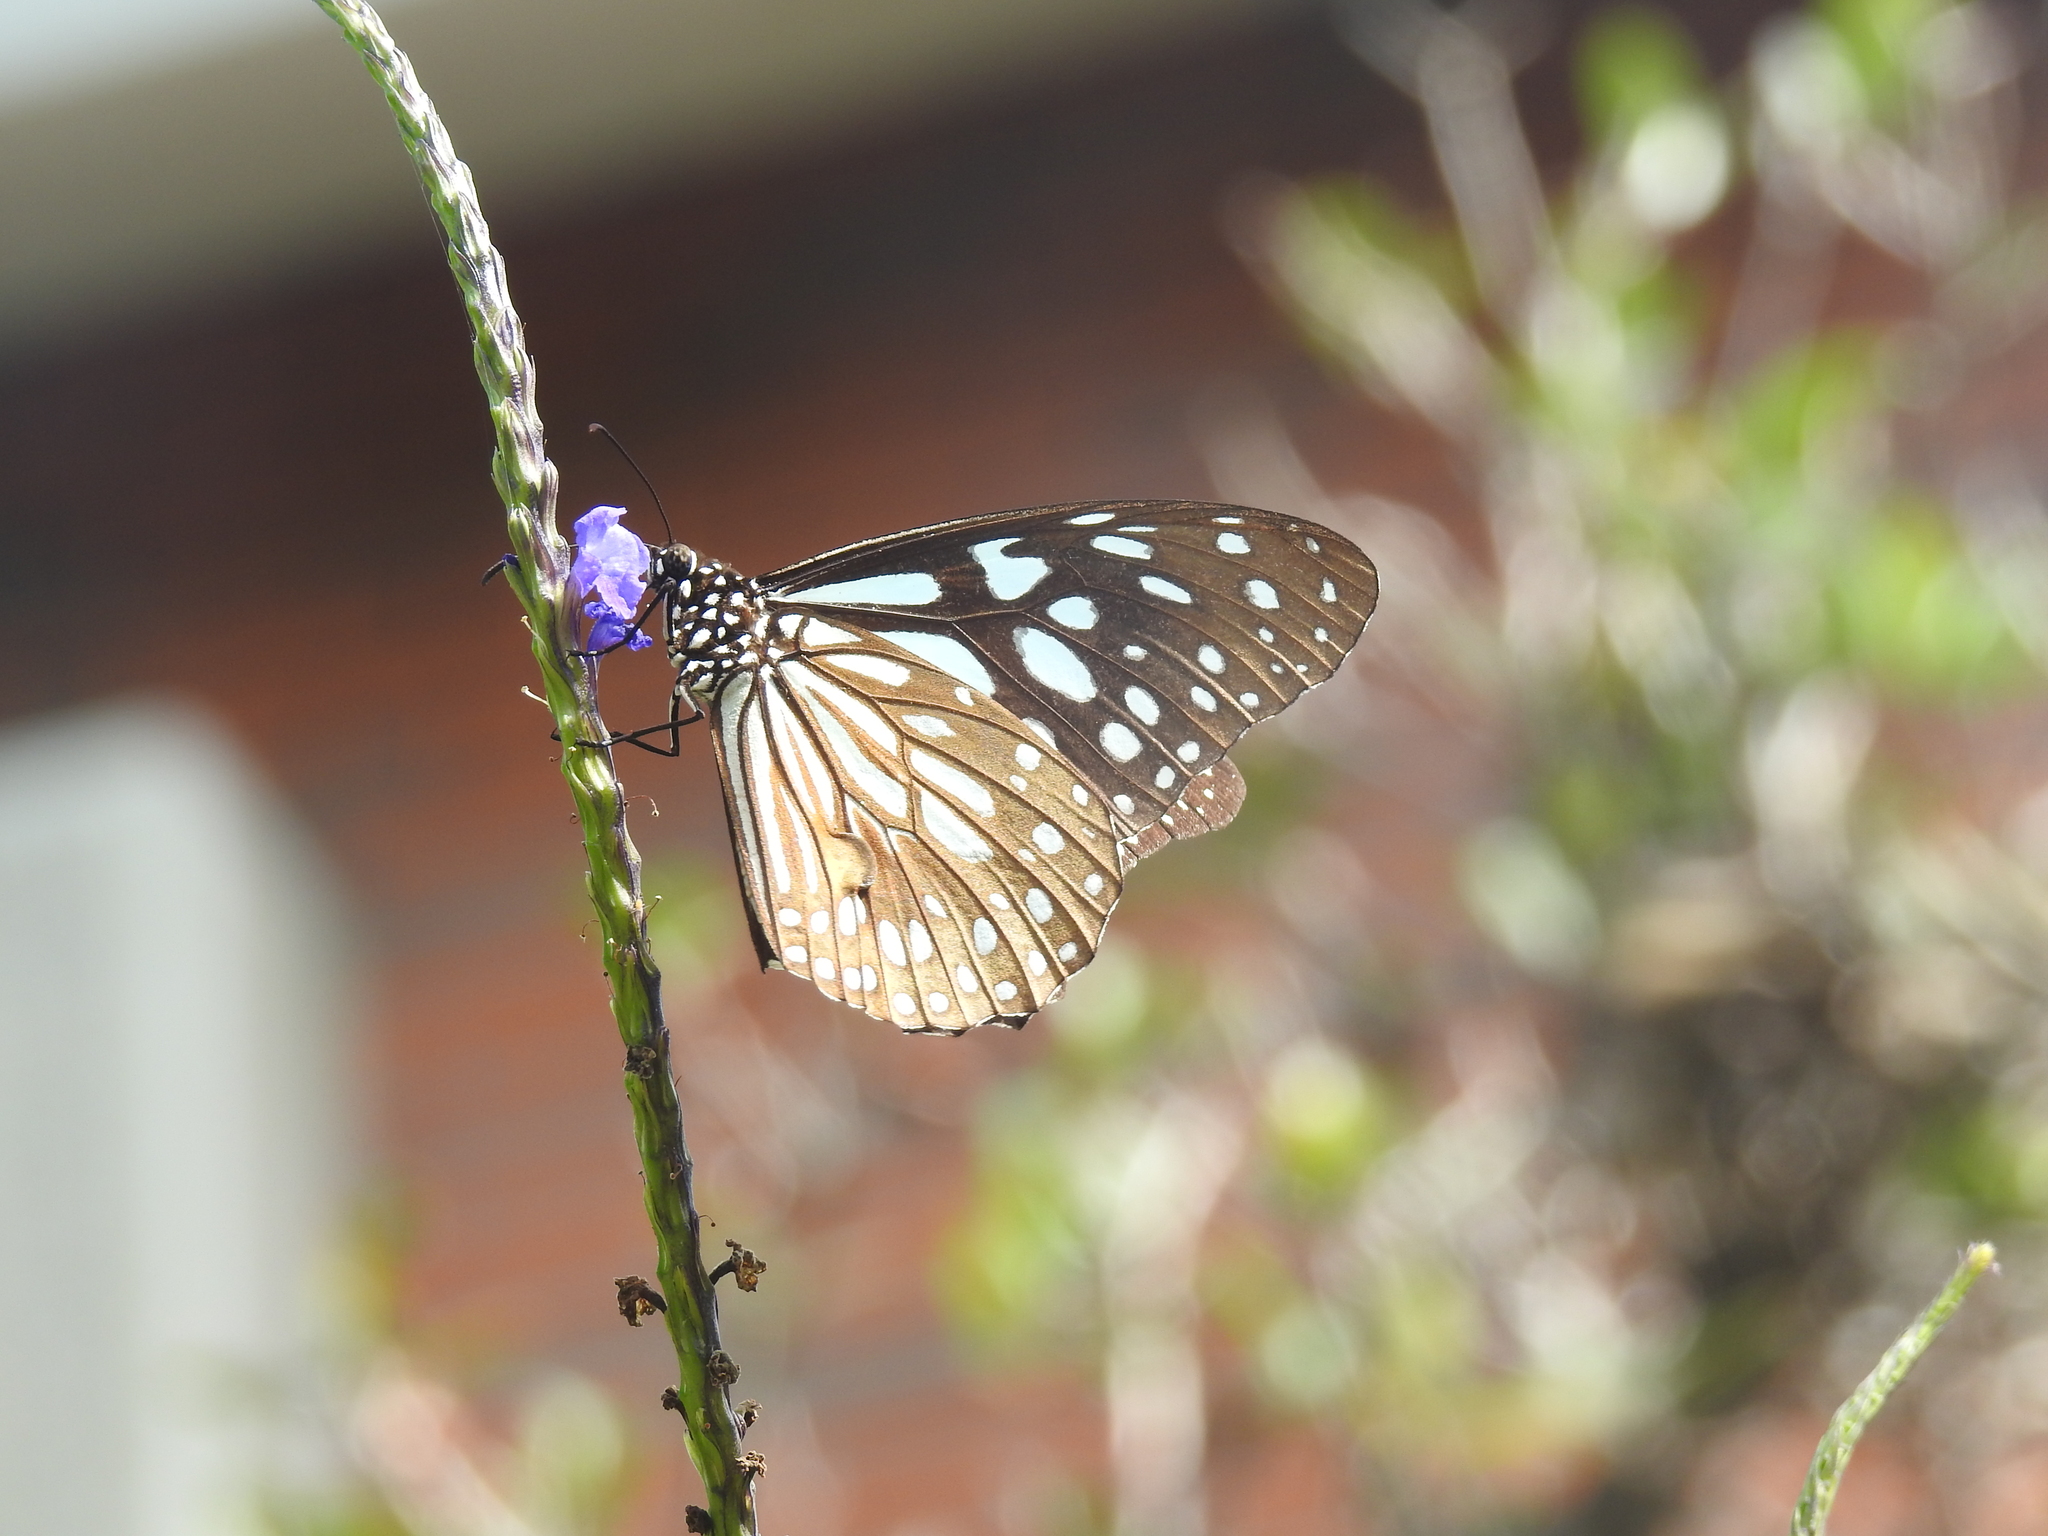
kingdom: Animalia
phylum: Arthropoda
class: Insecta
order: Lepidoptera
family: Nymphalidae
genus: Tirumala
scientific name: Tirumala limniace
